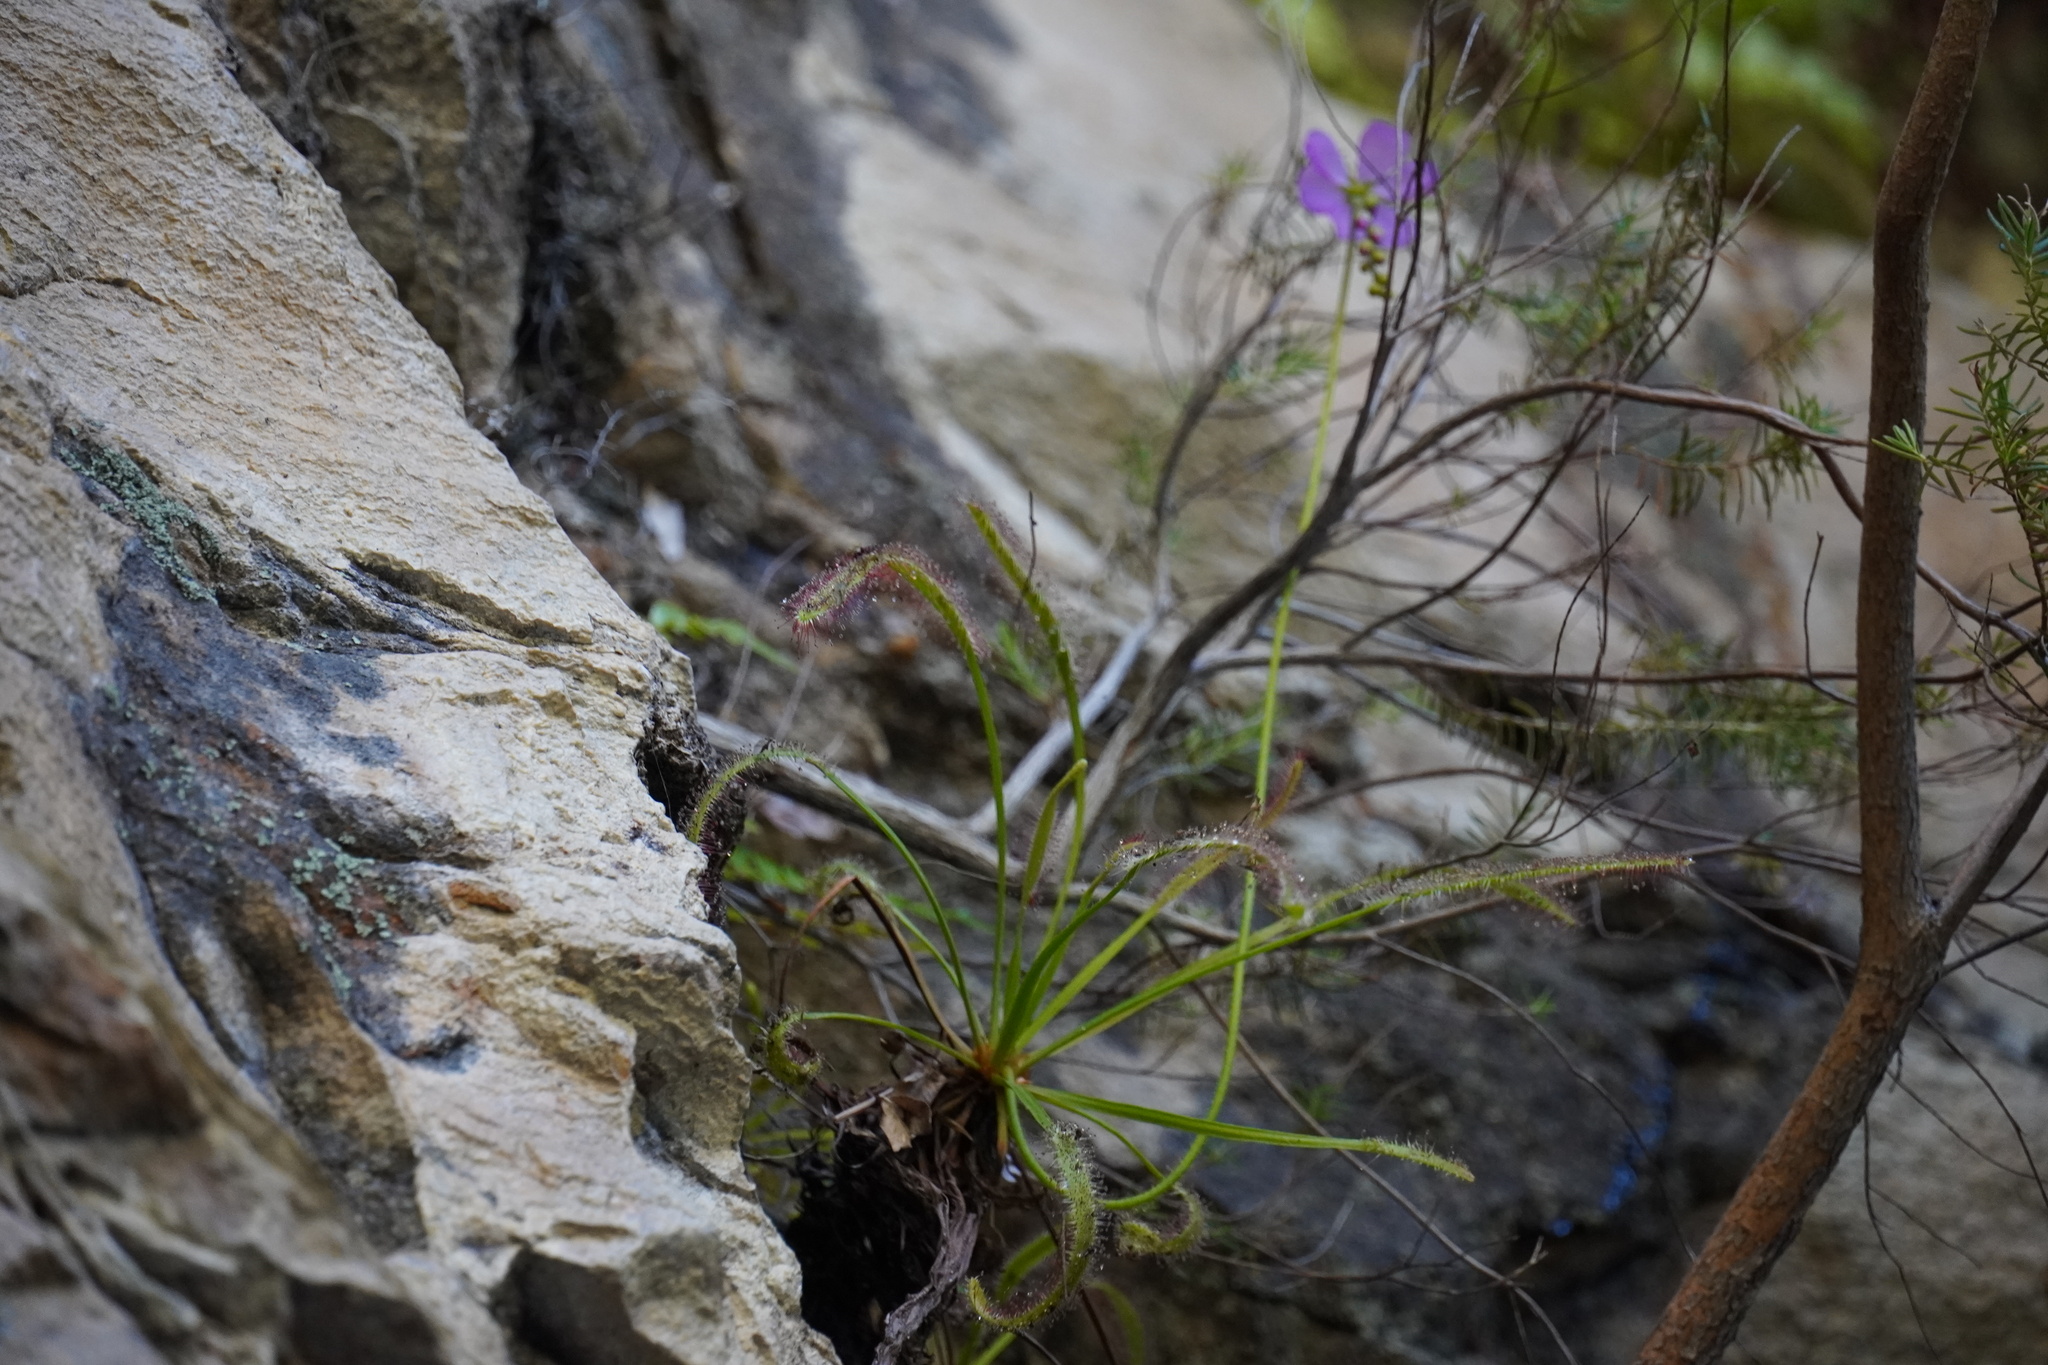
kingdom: Plantae
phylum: Tracheophyta
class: Magnoliopsida
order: Caryophyllales
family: Droseraceae
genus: Drosera
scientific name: Drosera capensis
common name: Cape sundew
